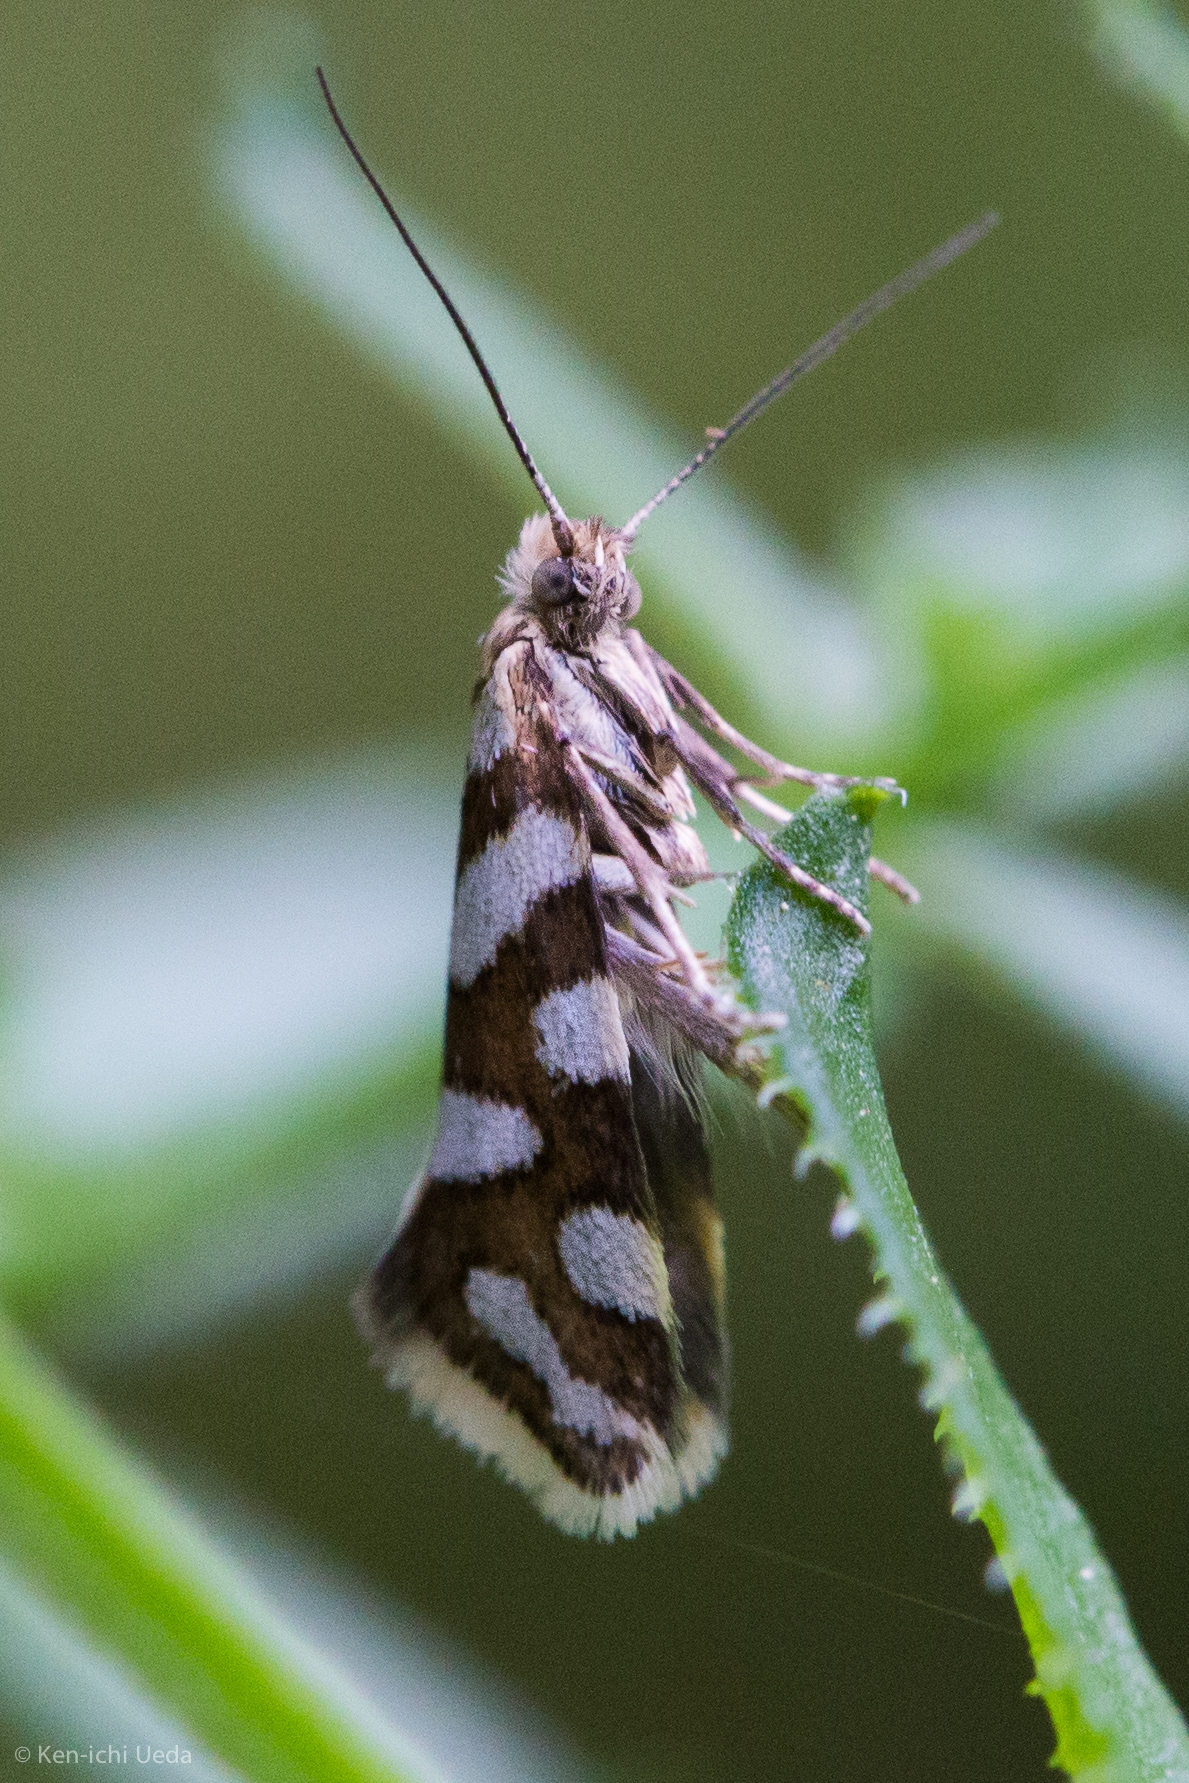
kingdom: Animalia
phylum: Arthropoda
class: Insecta
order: Lepidoptera
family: Prodoxidae
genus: Greya
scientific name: Greya reticulata
